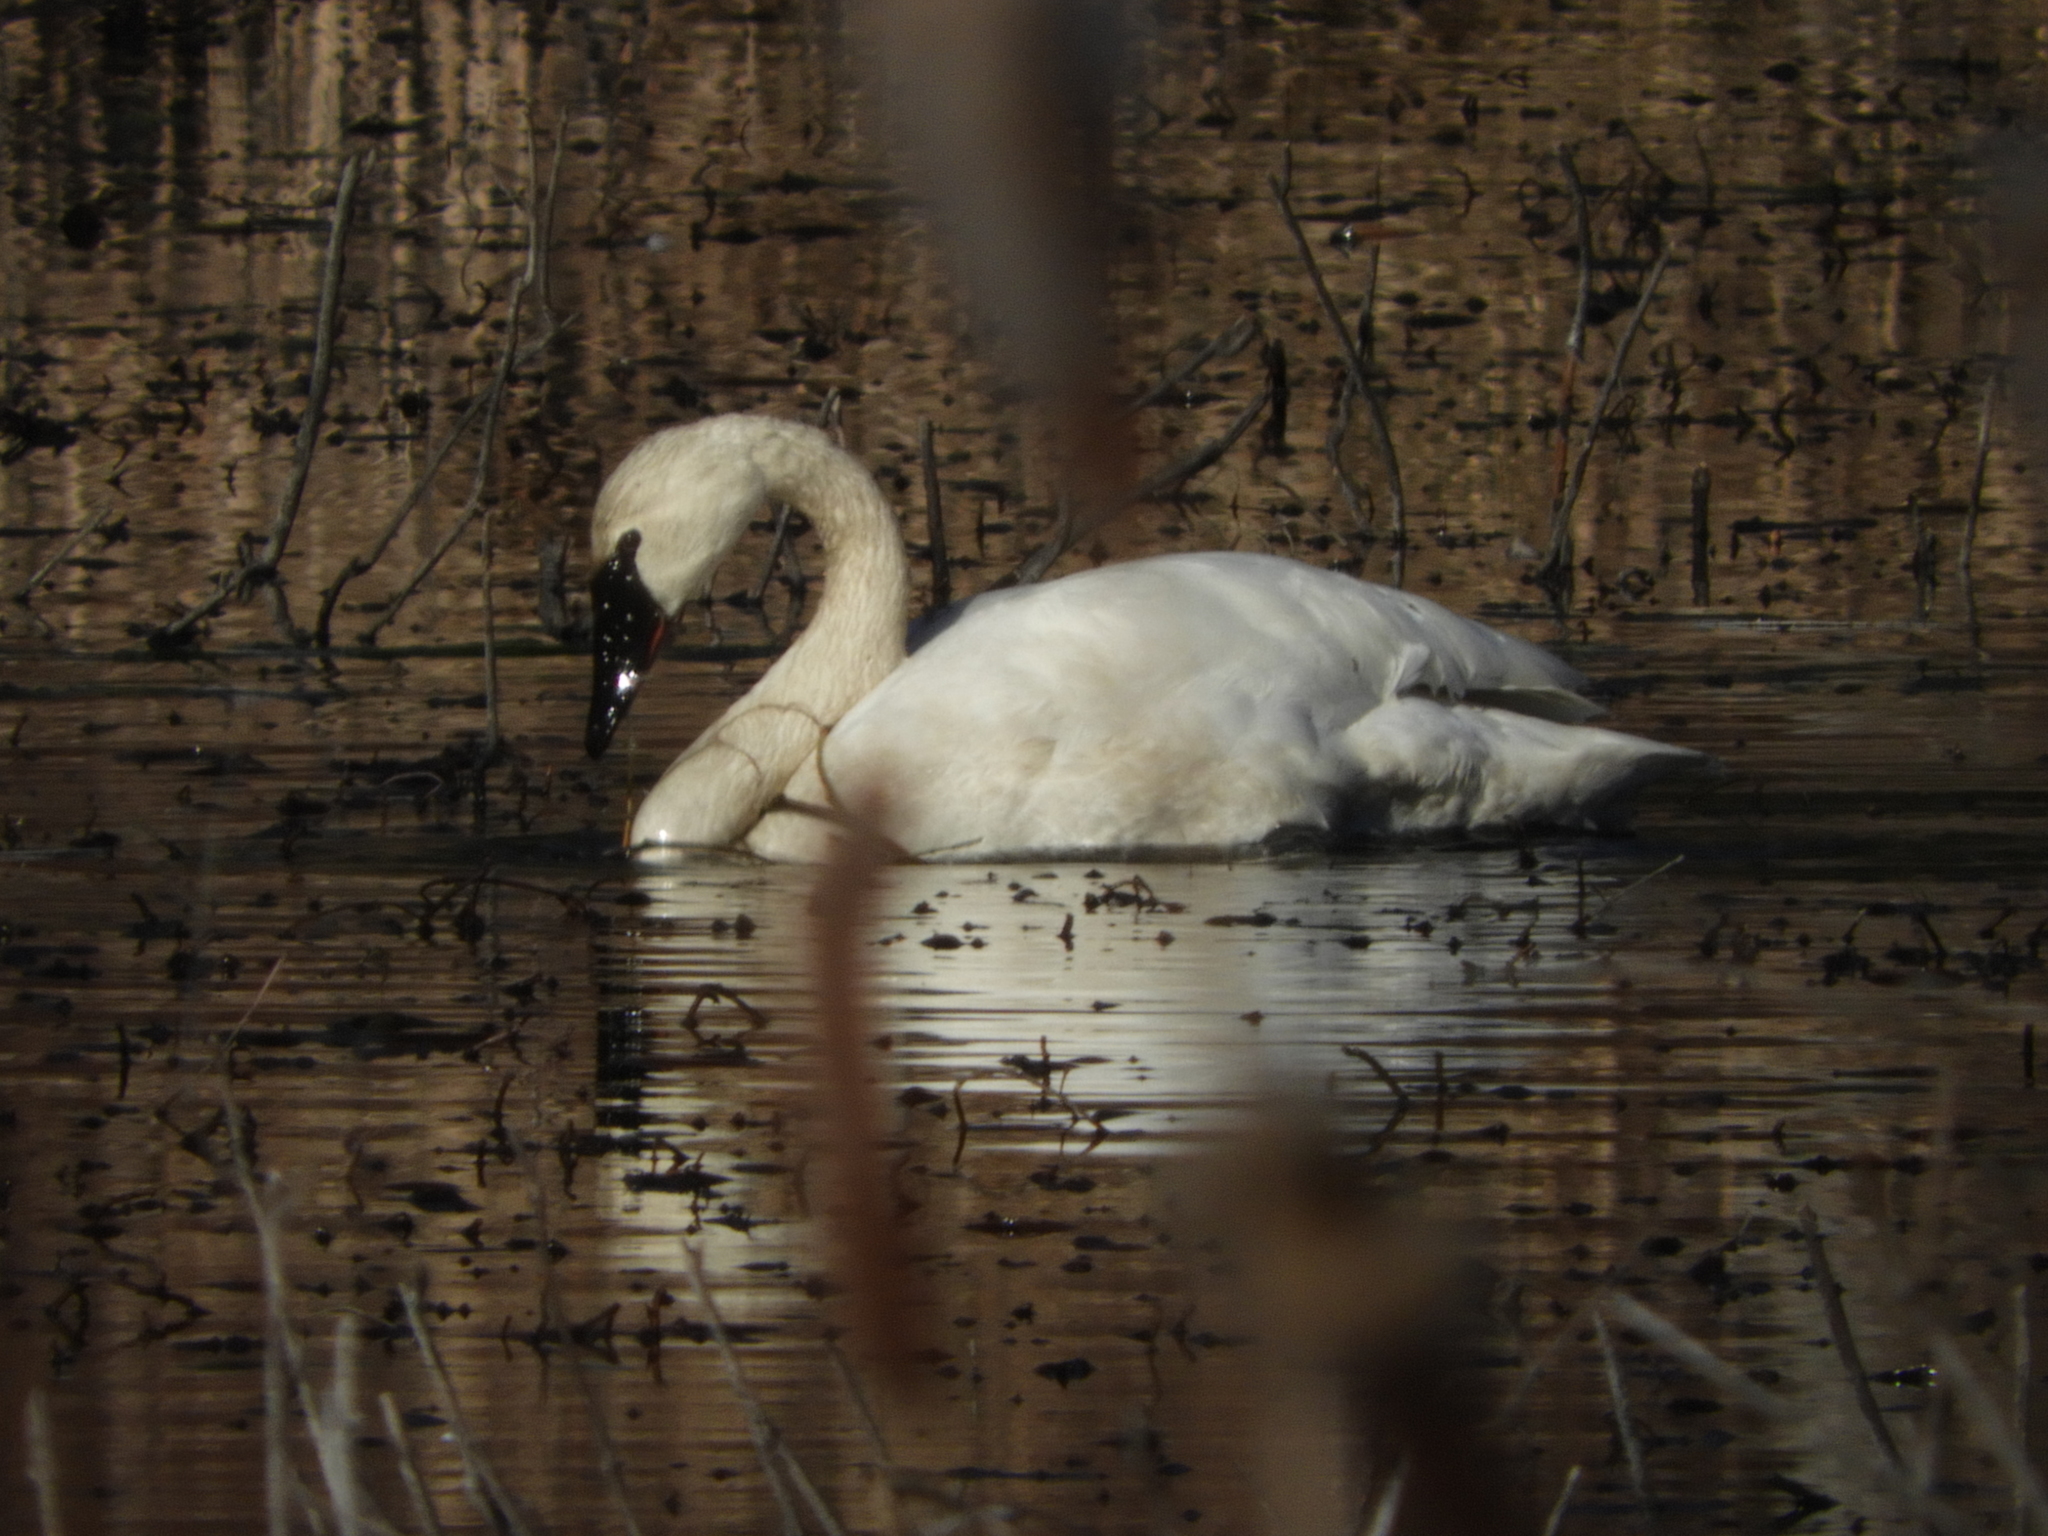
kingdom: Animalia
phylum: Chordata
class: Aves
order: Anseriformes
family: Anatidae
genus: Cygnus
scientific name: Cygnus buccinator
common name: Trumpeter swan
